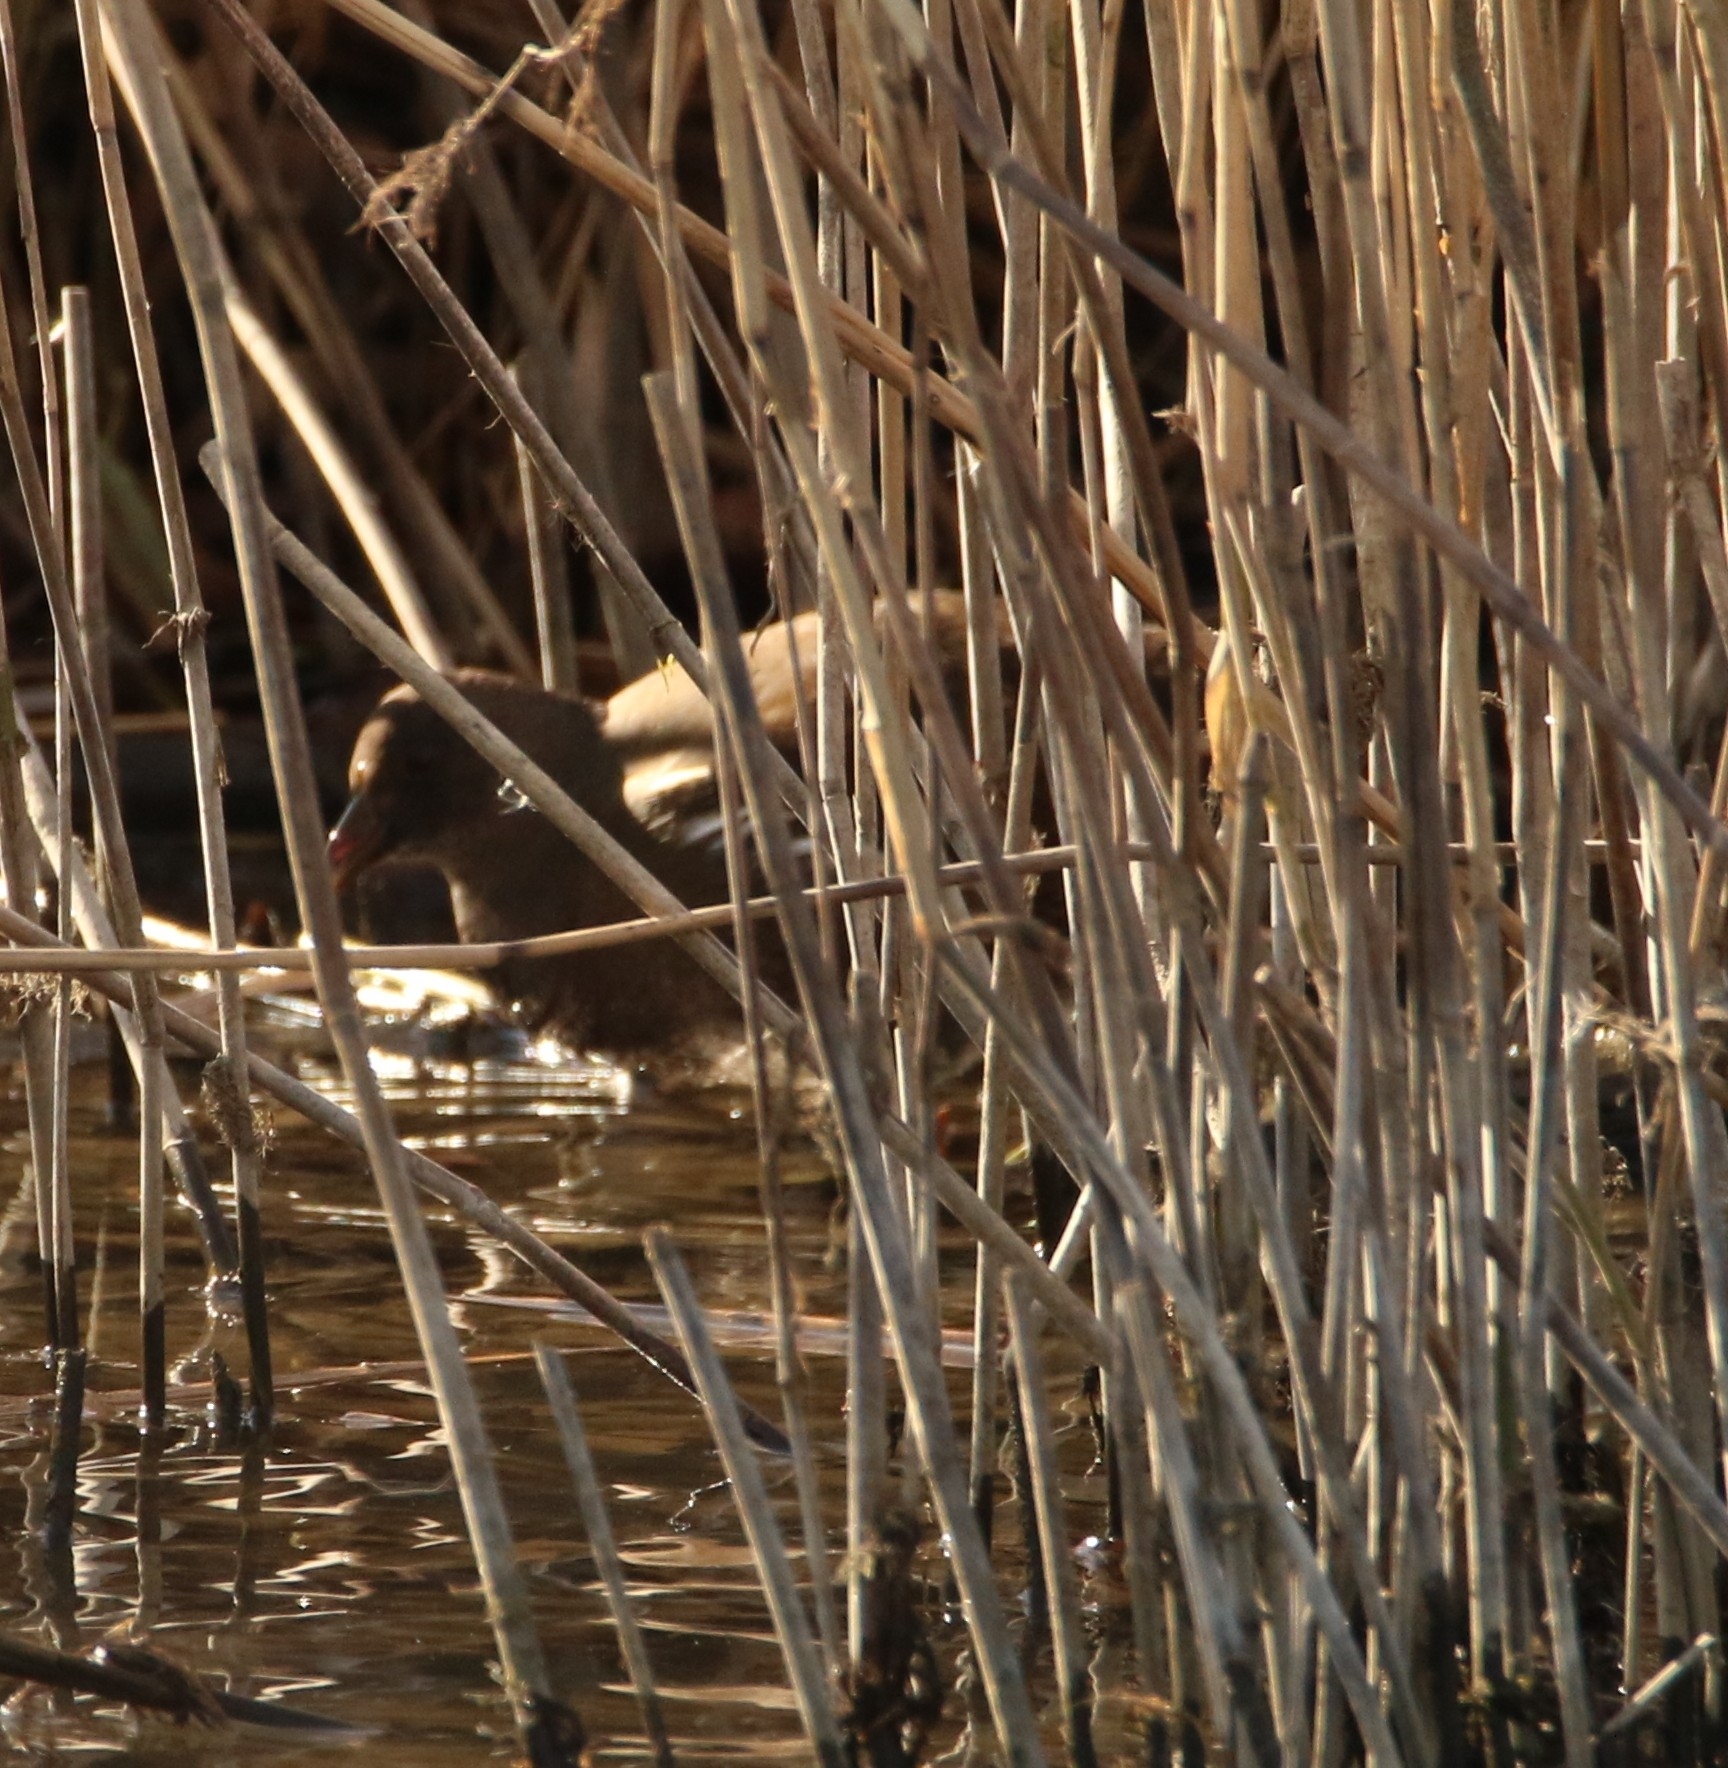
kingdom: Animalia
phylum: Chordata
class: Aves
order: Gruiformes
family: Rallidae
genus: Gallinula
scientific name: Gallinula chloropus
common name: Common moorhen
